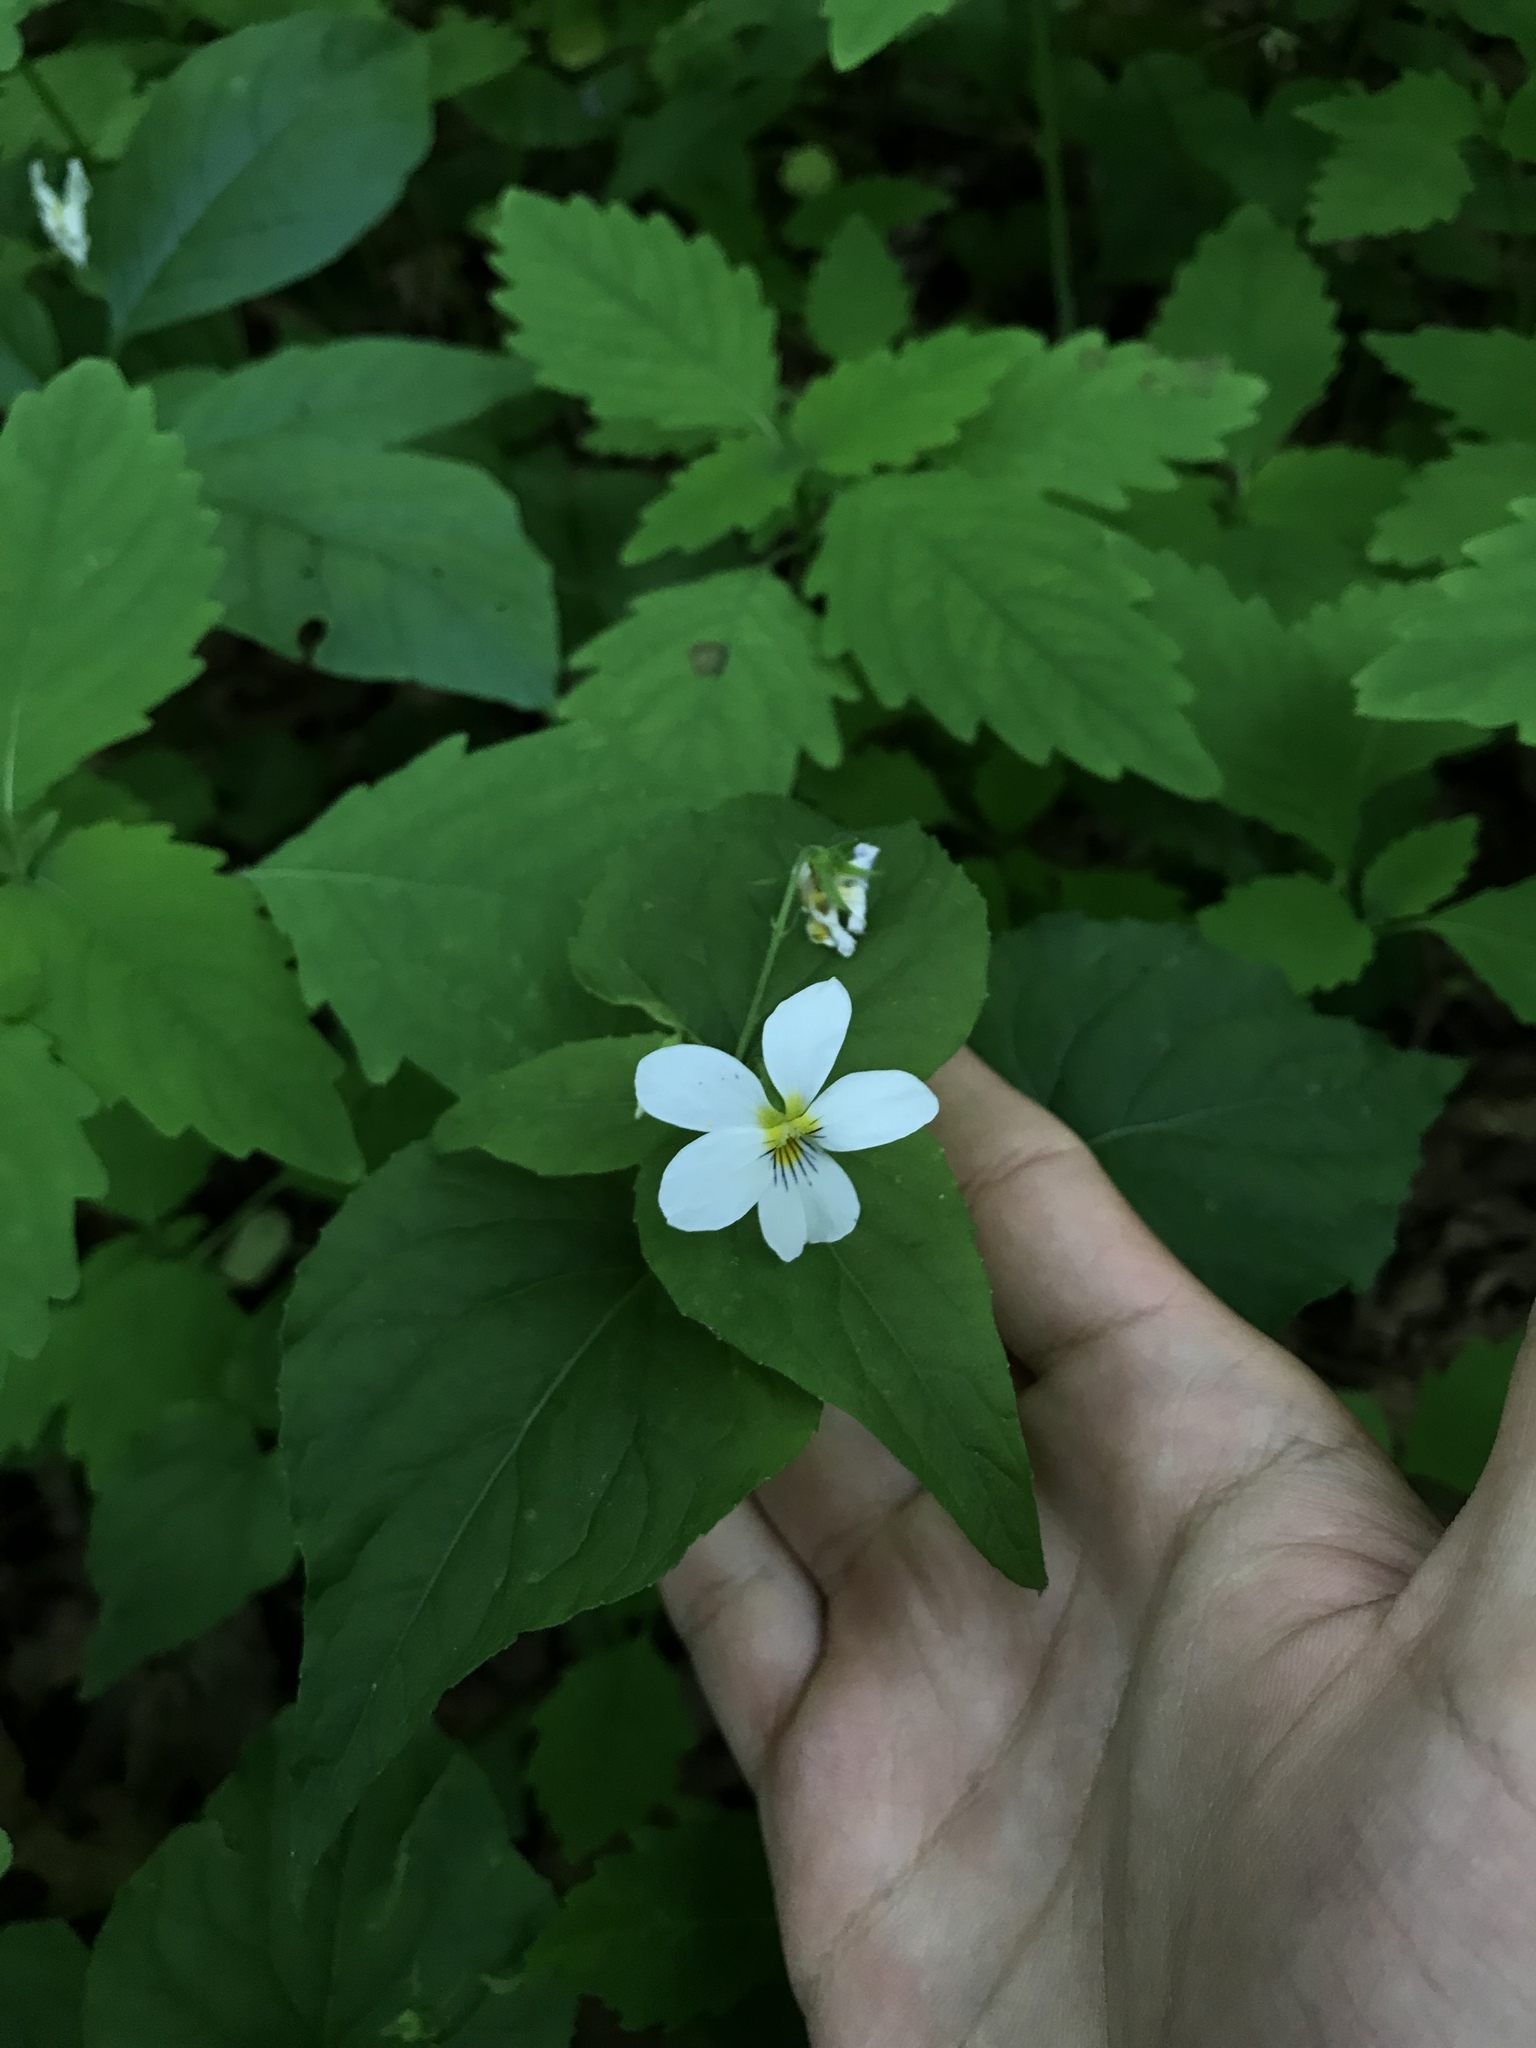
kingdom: Plantae
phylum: Tracheophyta
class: Magnoliopsida
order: Malpighiales
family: Violaceae
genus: Viola
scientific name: Viola canadensis
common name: Canada violet
